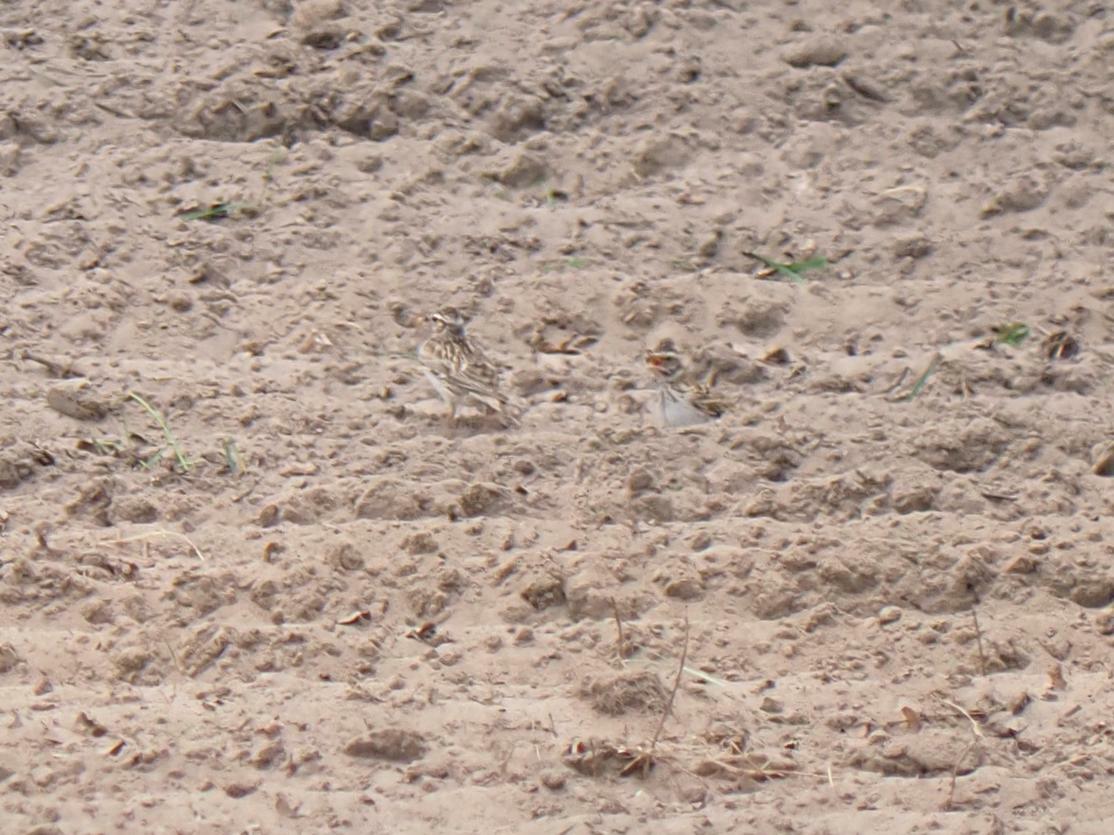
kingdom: Animalia
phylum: Chordata
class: Aves
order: Passeriformes
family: Alaudidae
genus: Lullula
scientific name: Lullula arborea
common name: Woodlark
